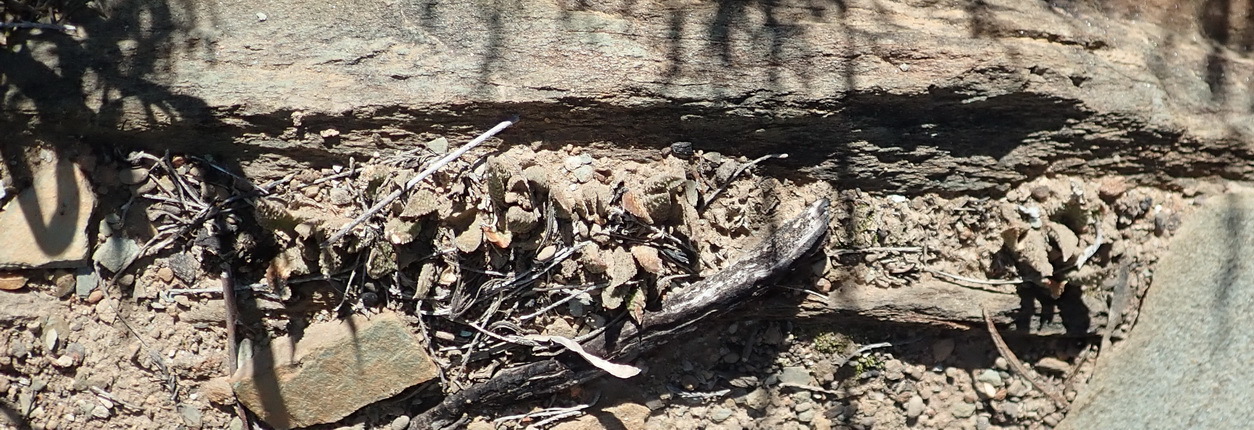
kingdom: Plantae
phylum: Tracheophyta
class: Liliopsida
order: Asparagales
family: Asphodelaceae
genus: Haworthiopsis
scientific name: Haworthiopsis scabra
